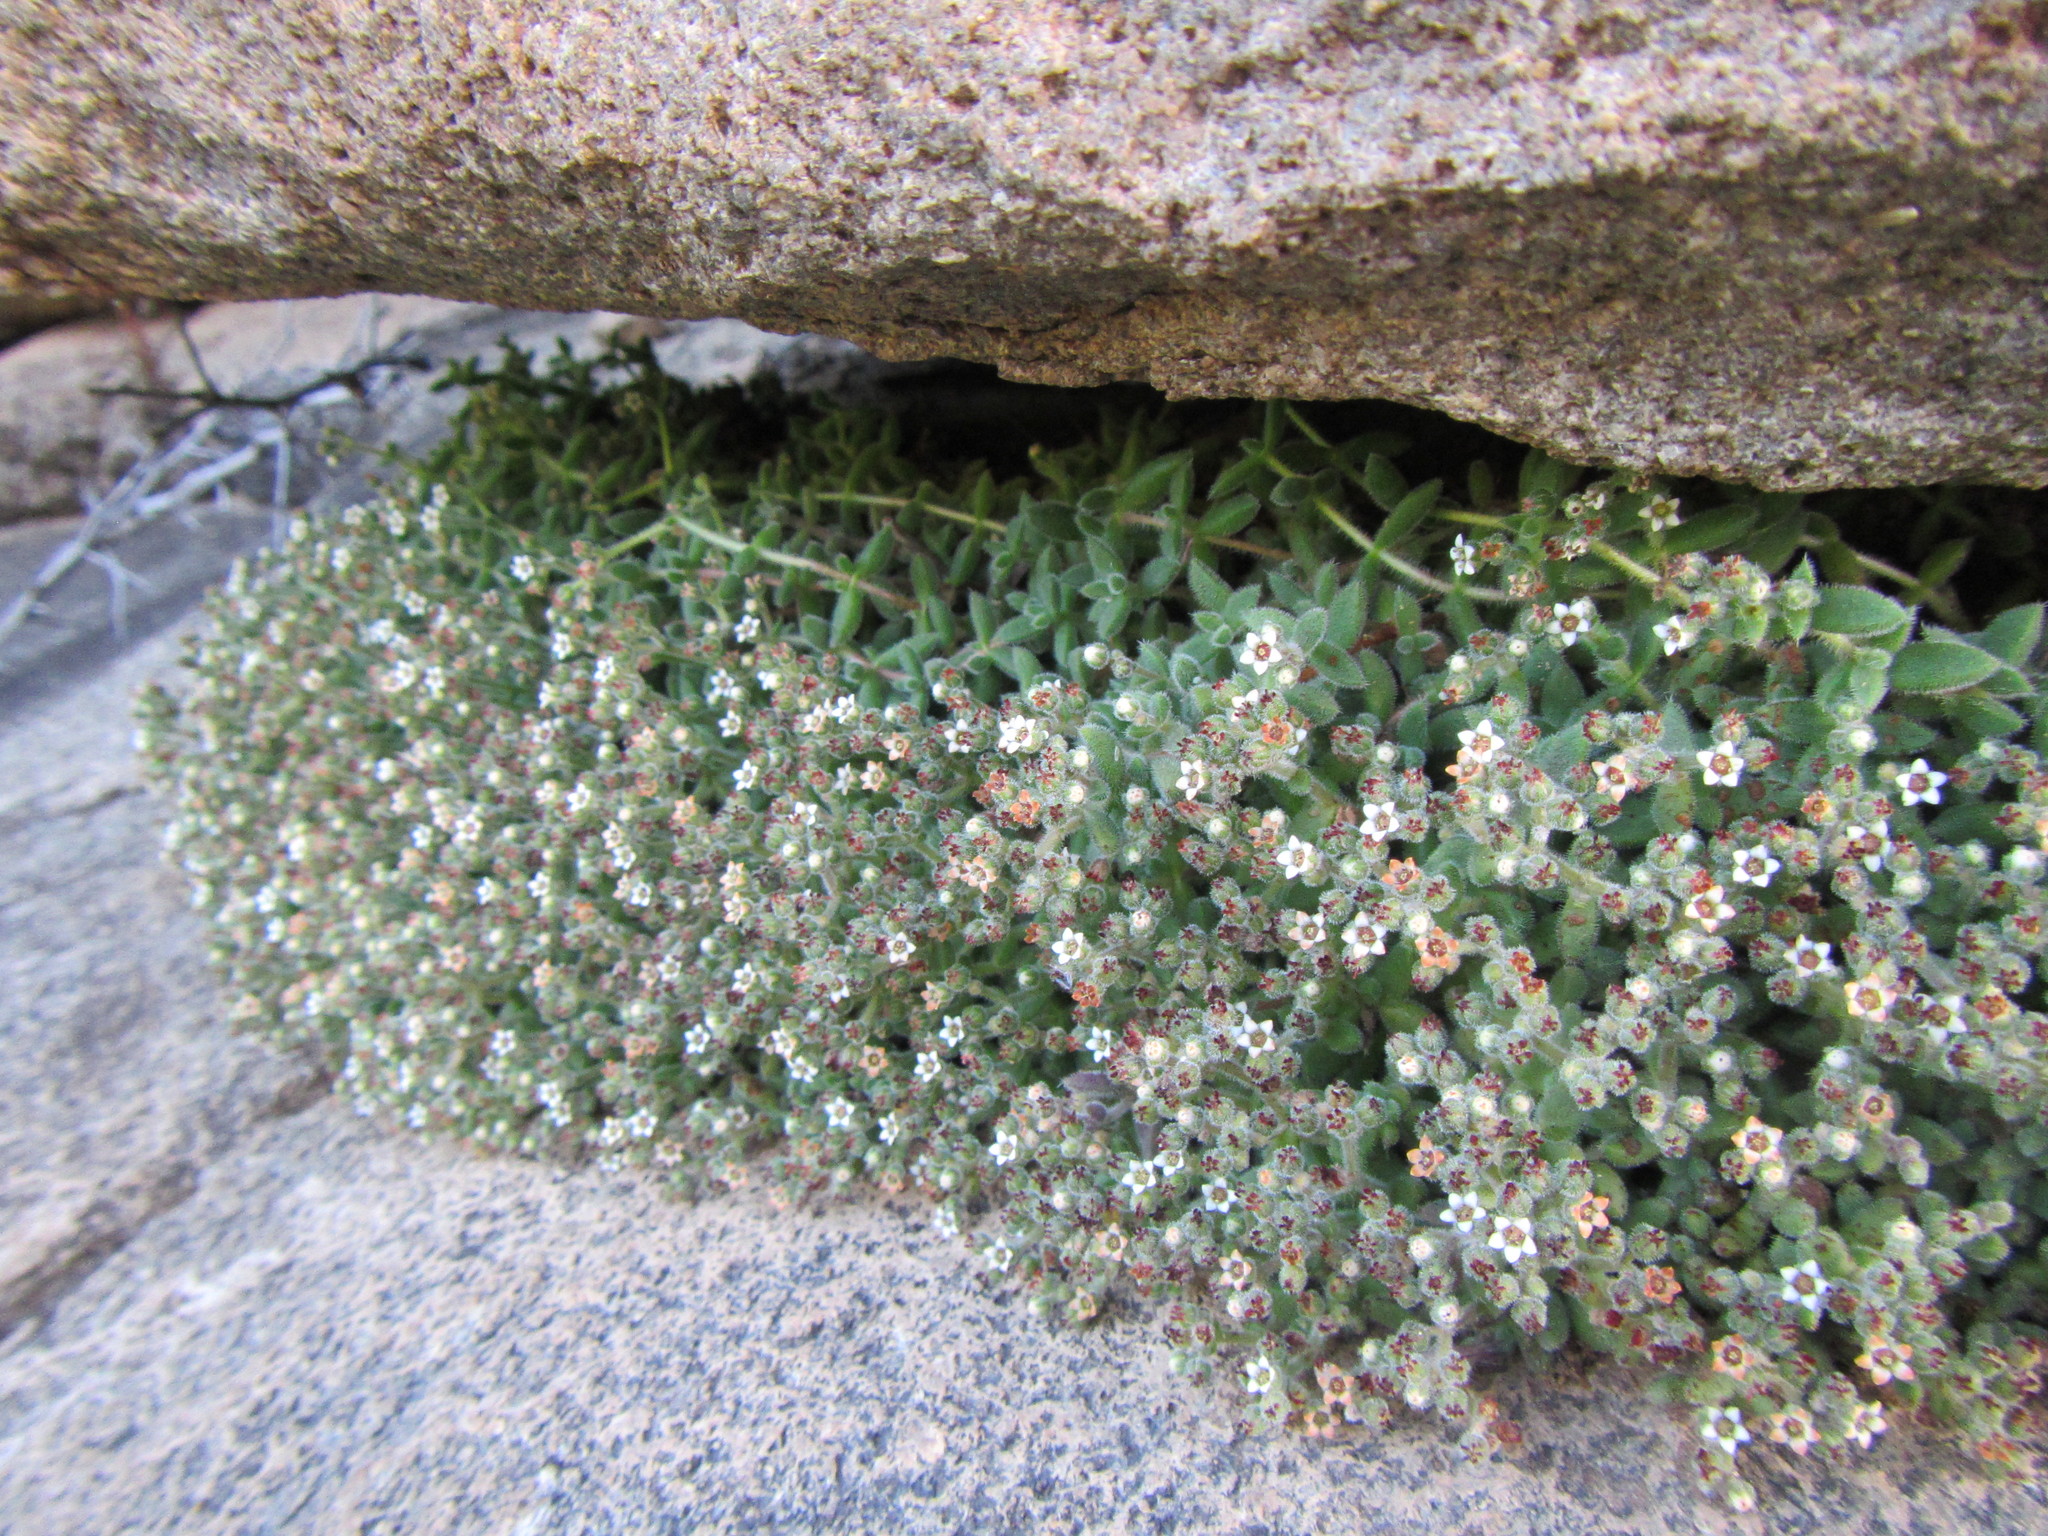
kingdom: Plantae
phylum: Tracheophyta
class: Magnoliopsida
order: Saxifragales
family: Crassulaceae
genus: Crassula
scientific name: Crassula lanuginosa
